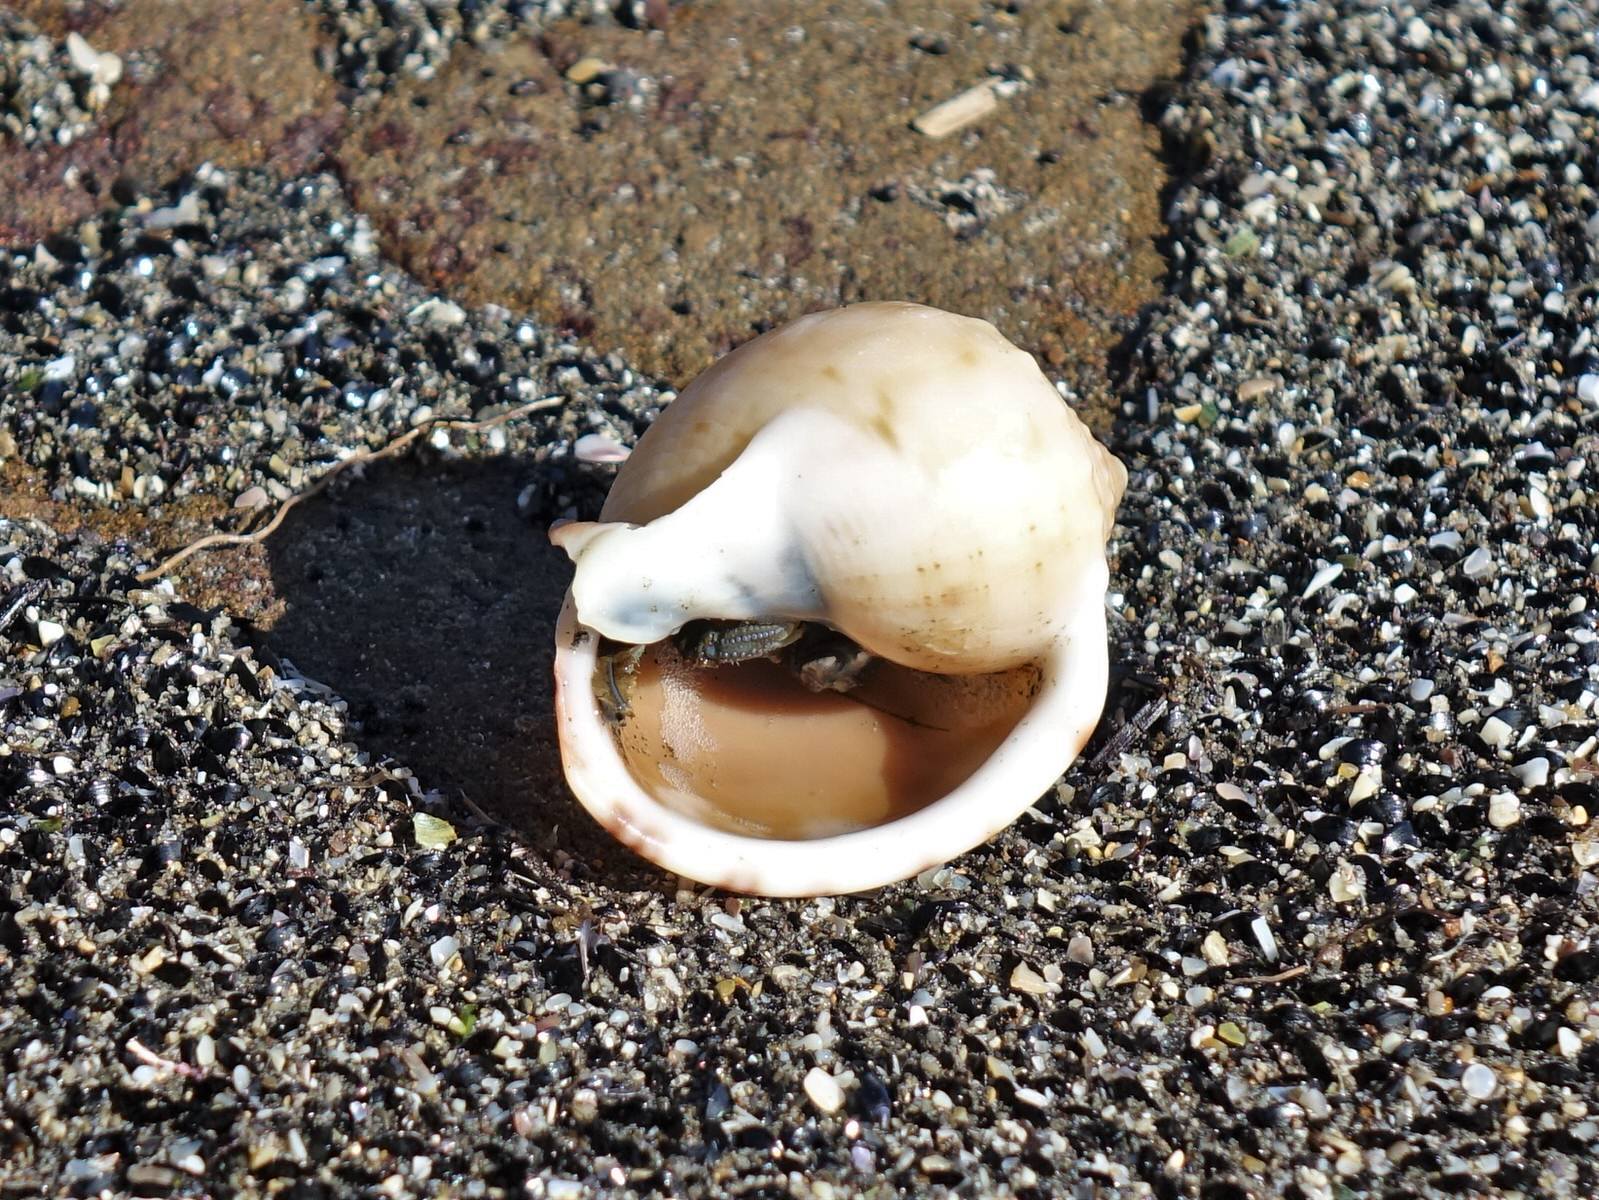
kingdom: Animalia
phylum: Arthropoda
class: Malacostraca
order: Decapoda
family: Paguridae
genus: Pagurus
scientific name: Pagurus novizealandiae
